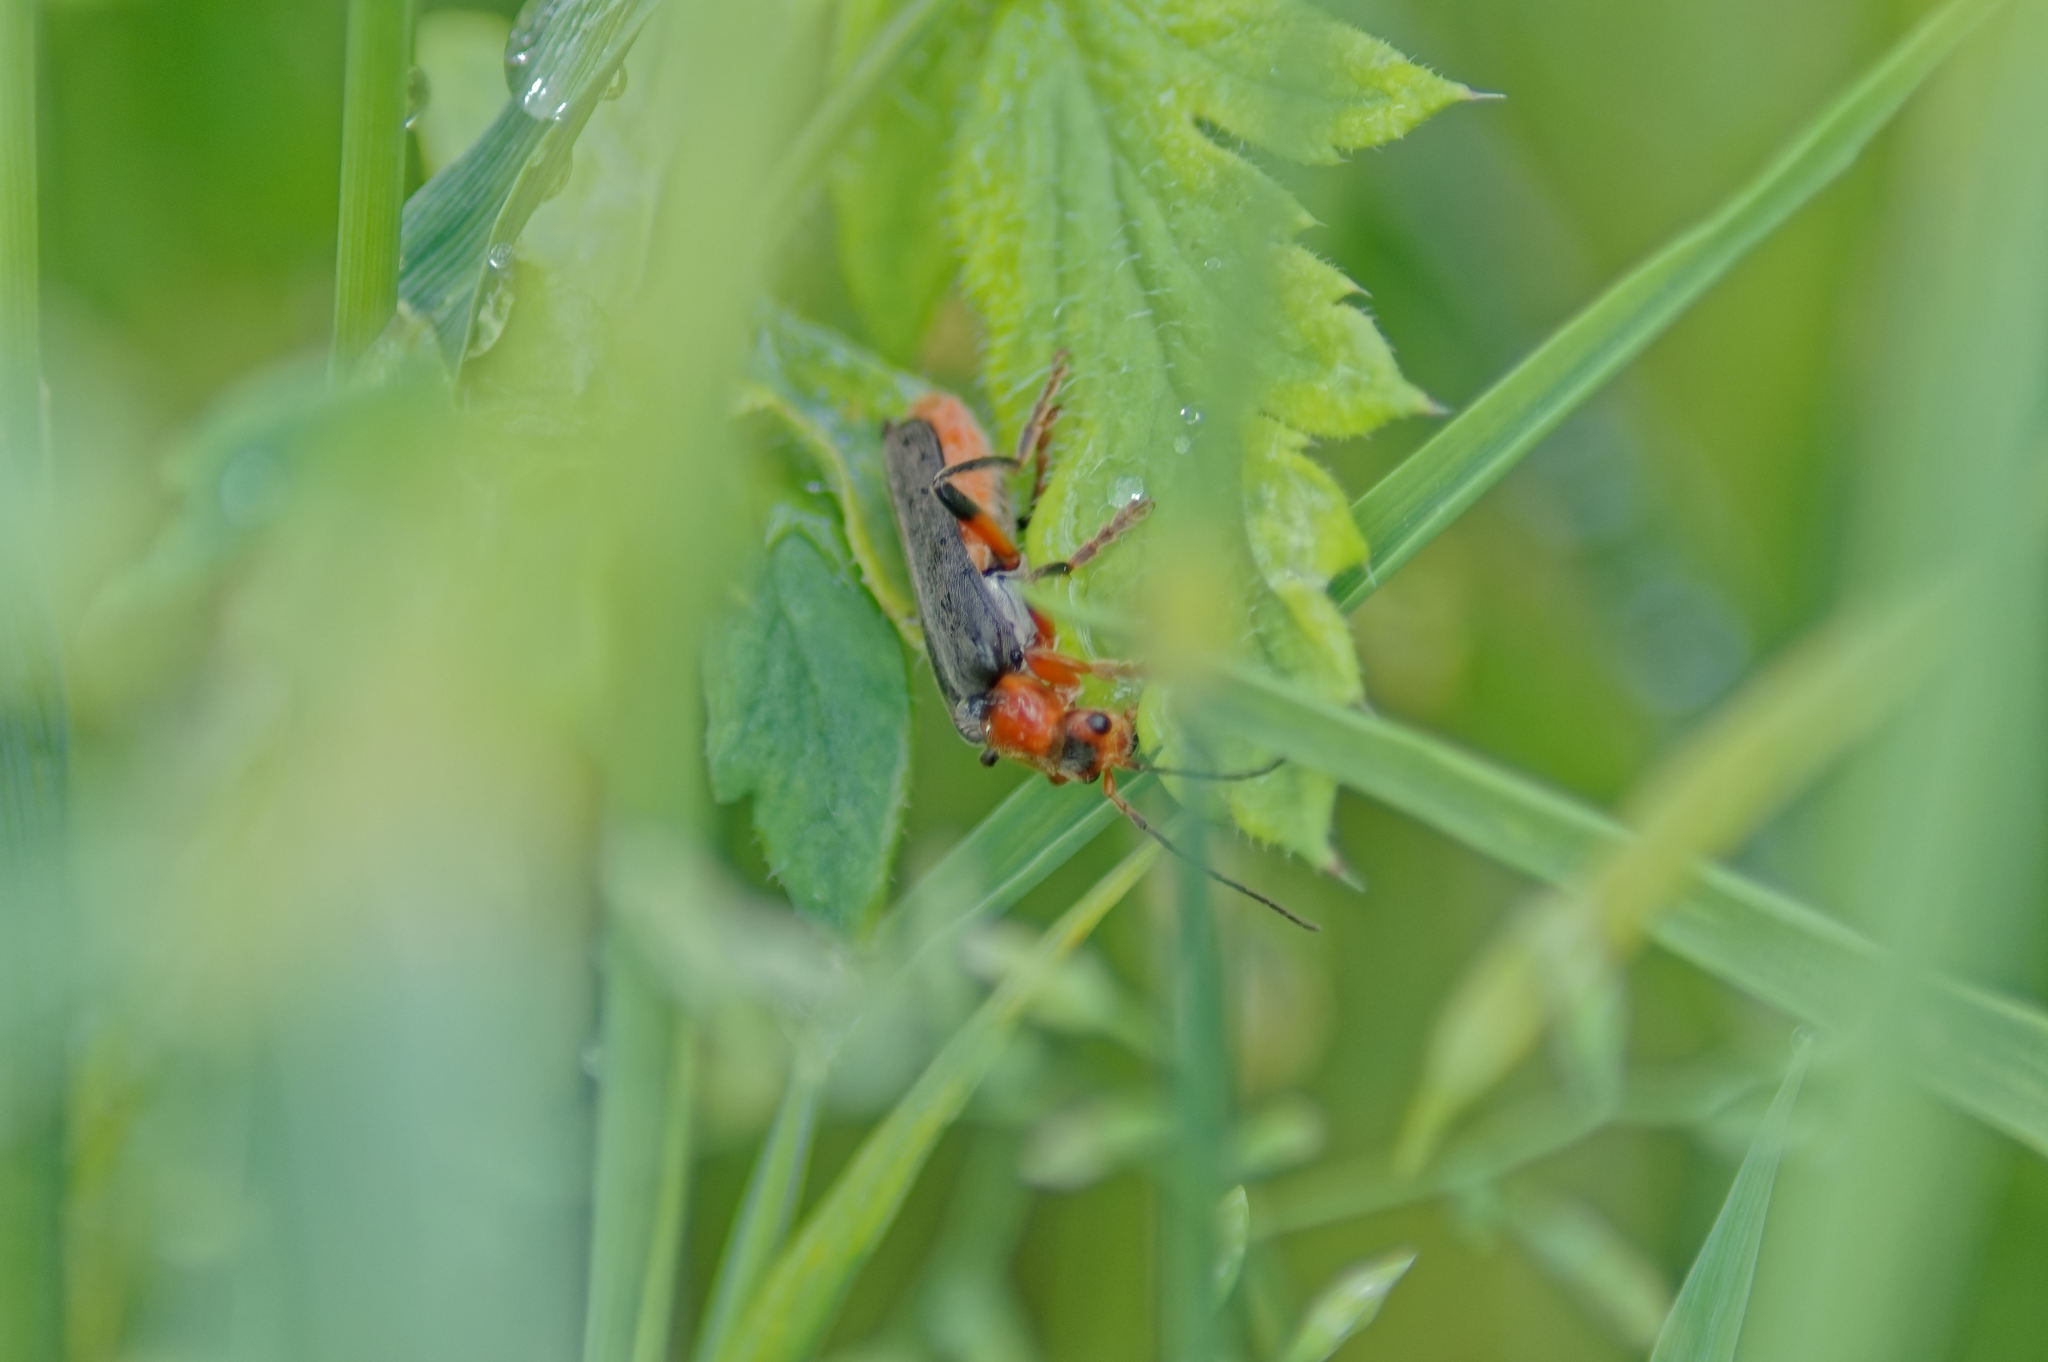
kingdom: Animalia
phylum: Arthropoda
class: Insecta
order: Coleoptera
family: Cantharidae
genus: Cantharis
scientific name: Cantharis livida
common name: Livid soldier beetle
